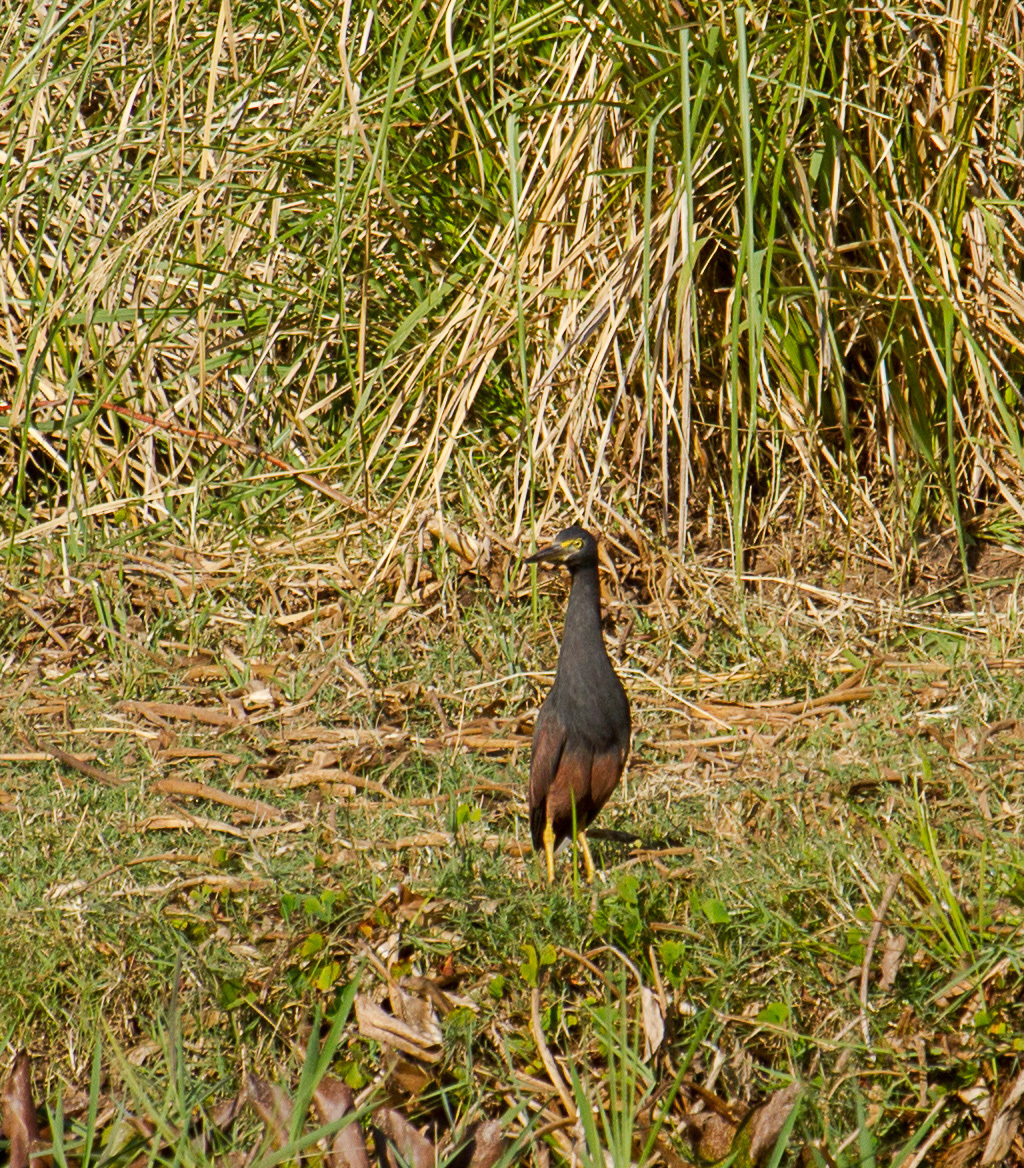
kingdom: Animalia
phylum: Chordata
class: Aves
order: Pelecaniformes
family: Ardeidae
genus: Ardeola
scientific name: Ardeola rufiventris
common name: Rufous-bellied heron
